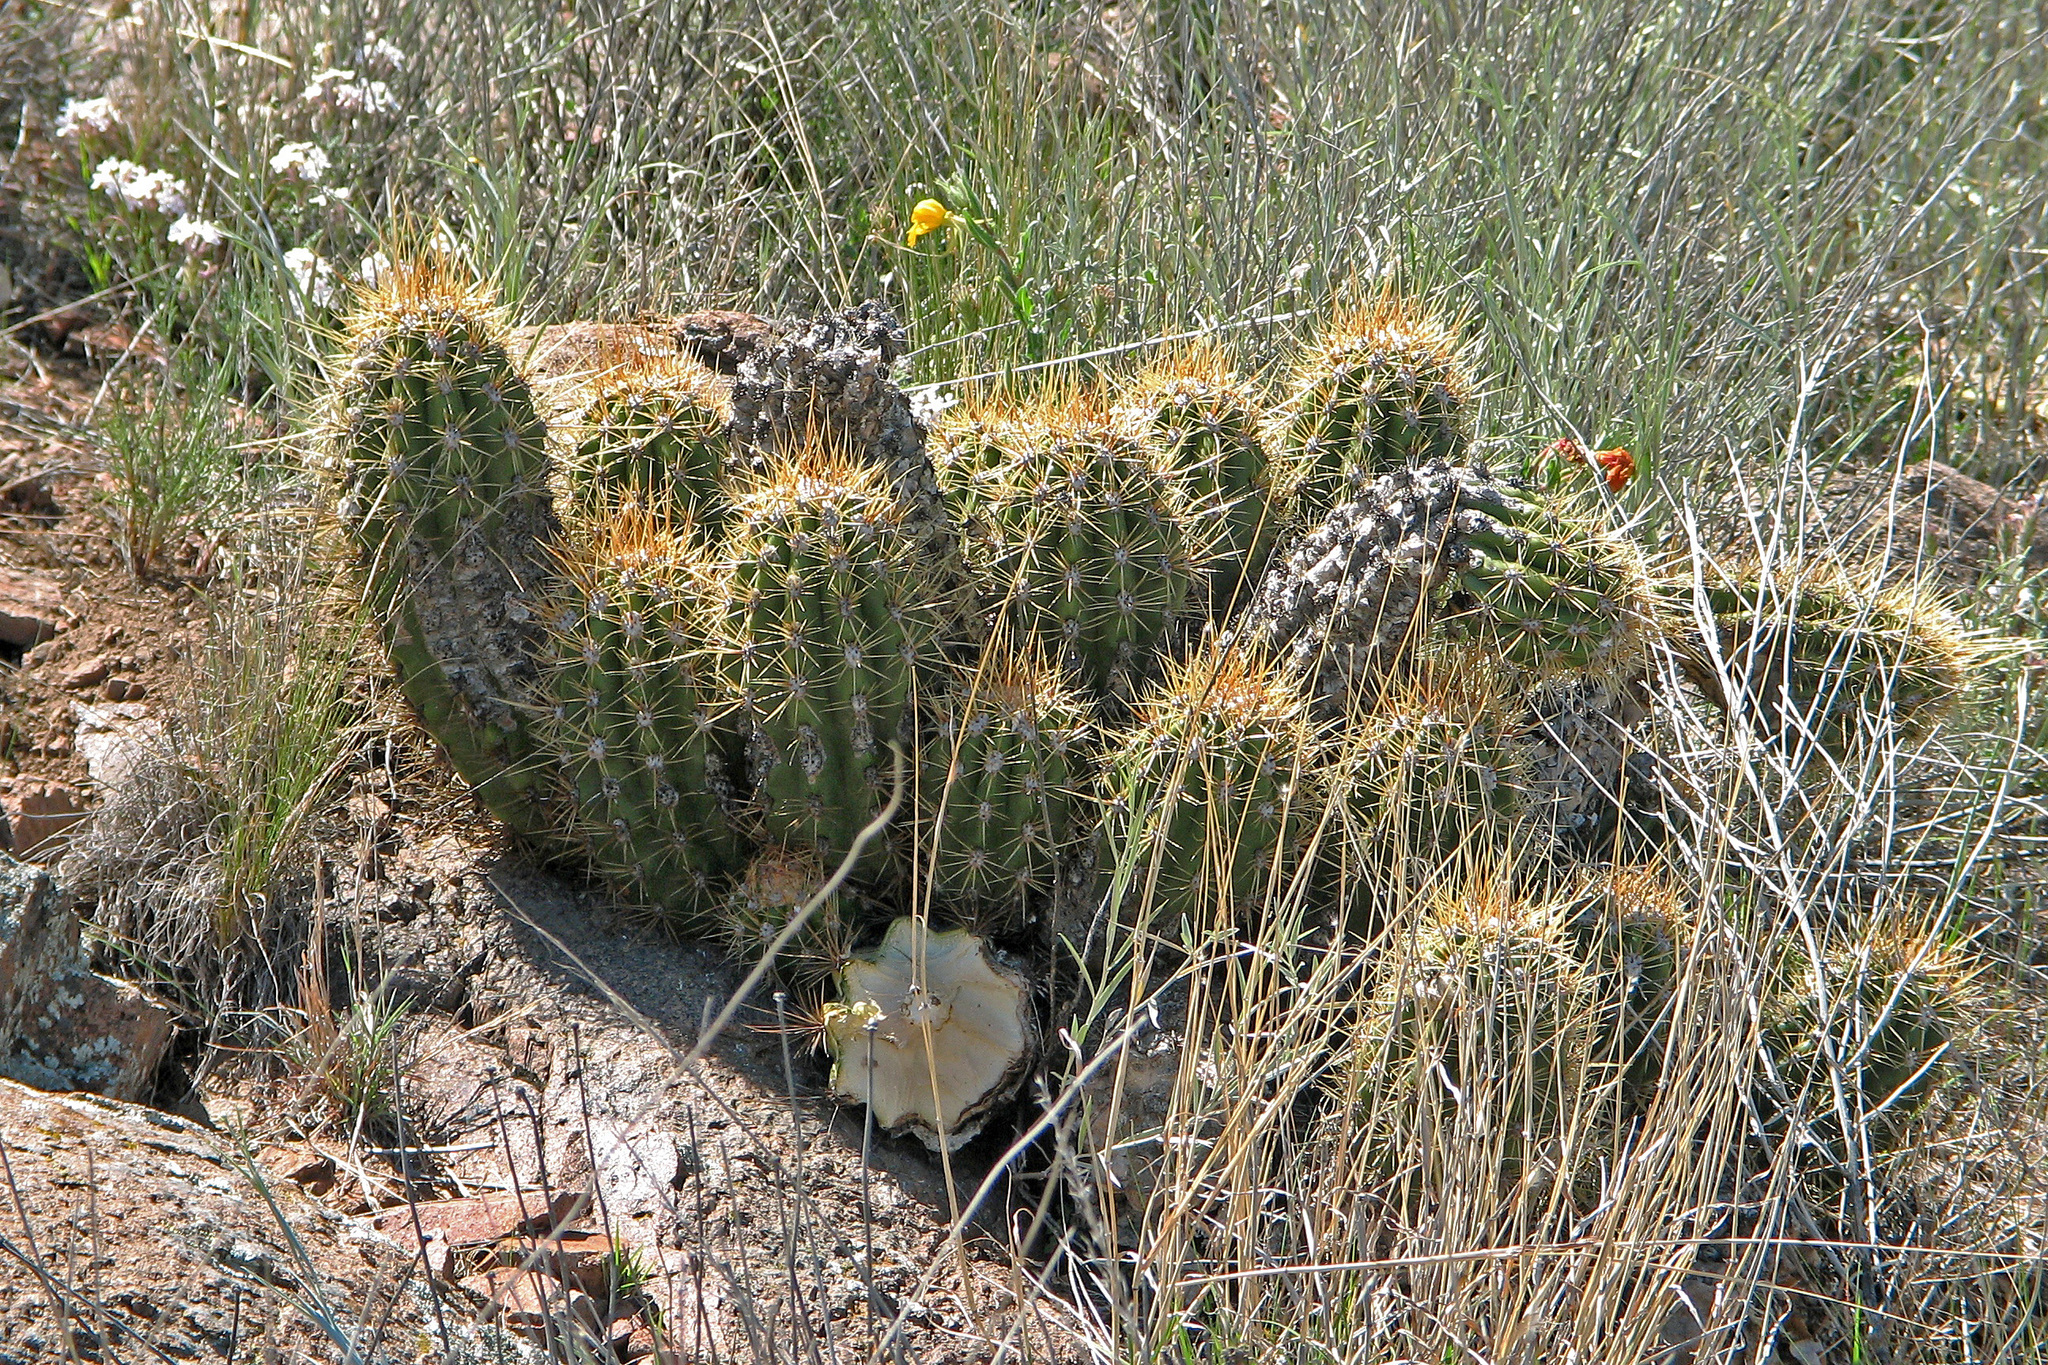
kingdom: Plantae
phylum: Tracheophyta
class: Magnoliopsida
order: Caryophyllales
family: Cactaceae
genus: Soehrensia
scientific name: Soehrensia candicans
